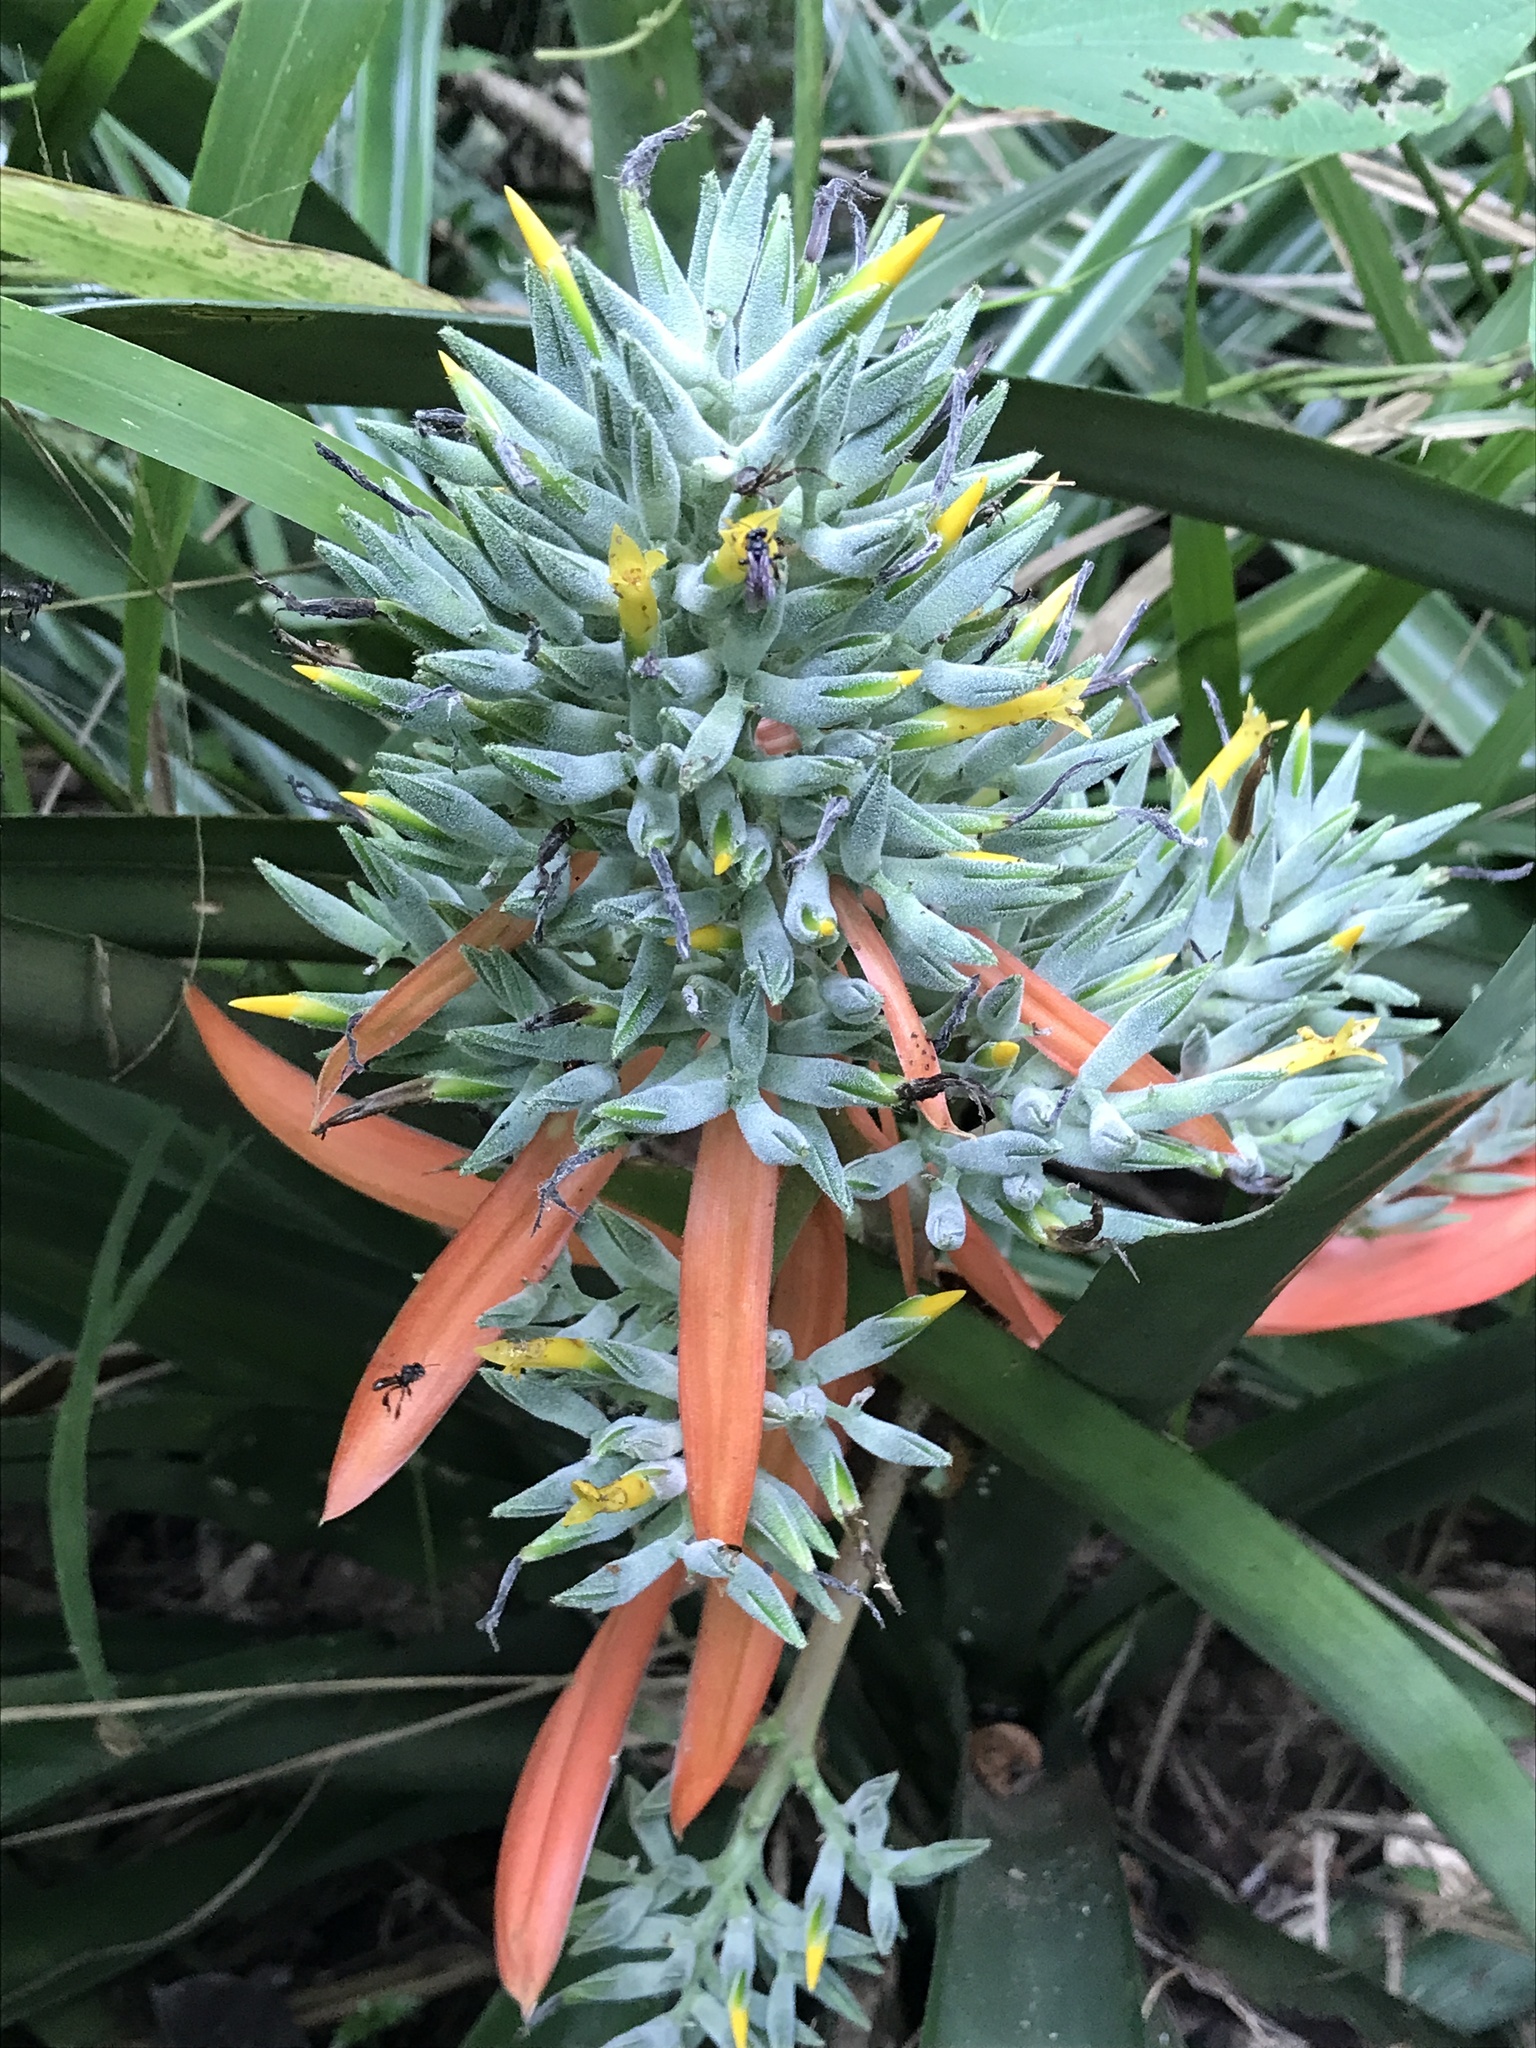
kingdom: Plantae
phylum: Tracheophyta
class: Liliopsida
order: Poales
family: Bromeliaceae
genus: Aechmea
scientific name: Aechmea costantinii
